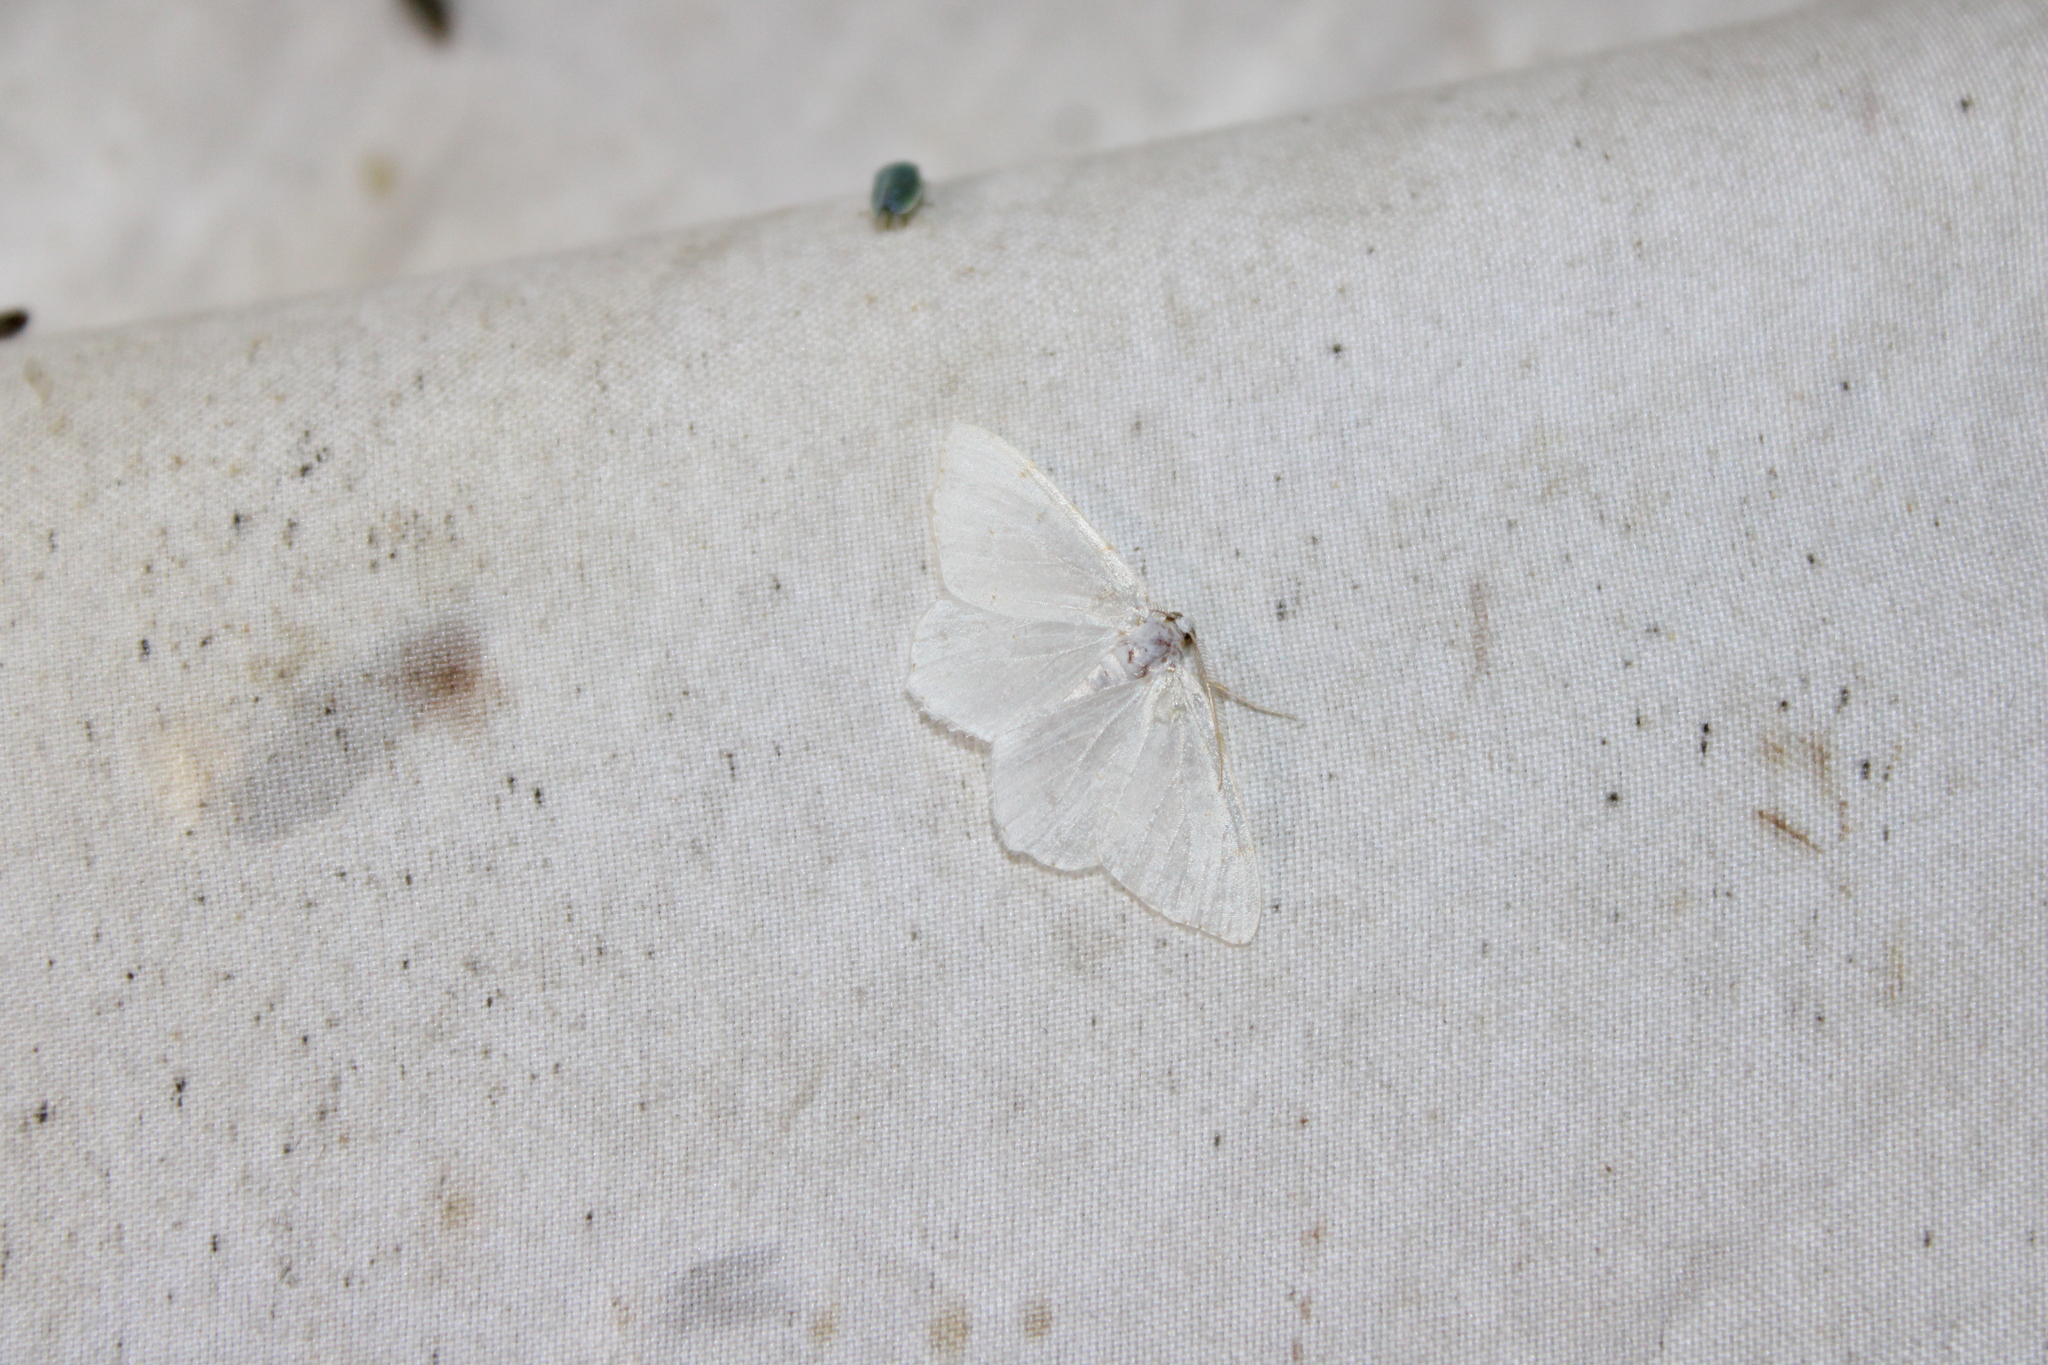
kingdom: Animalia
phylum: Arthropoda
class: Insecta
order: Lepidoptera
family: Geometridae
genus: Macaria
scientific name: Macaria pustularia
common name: Lesser maple spanworm moth
